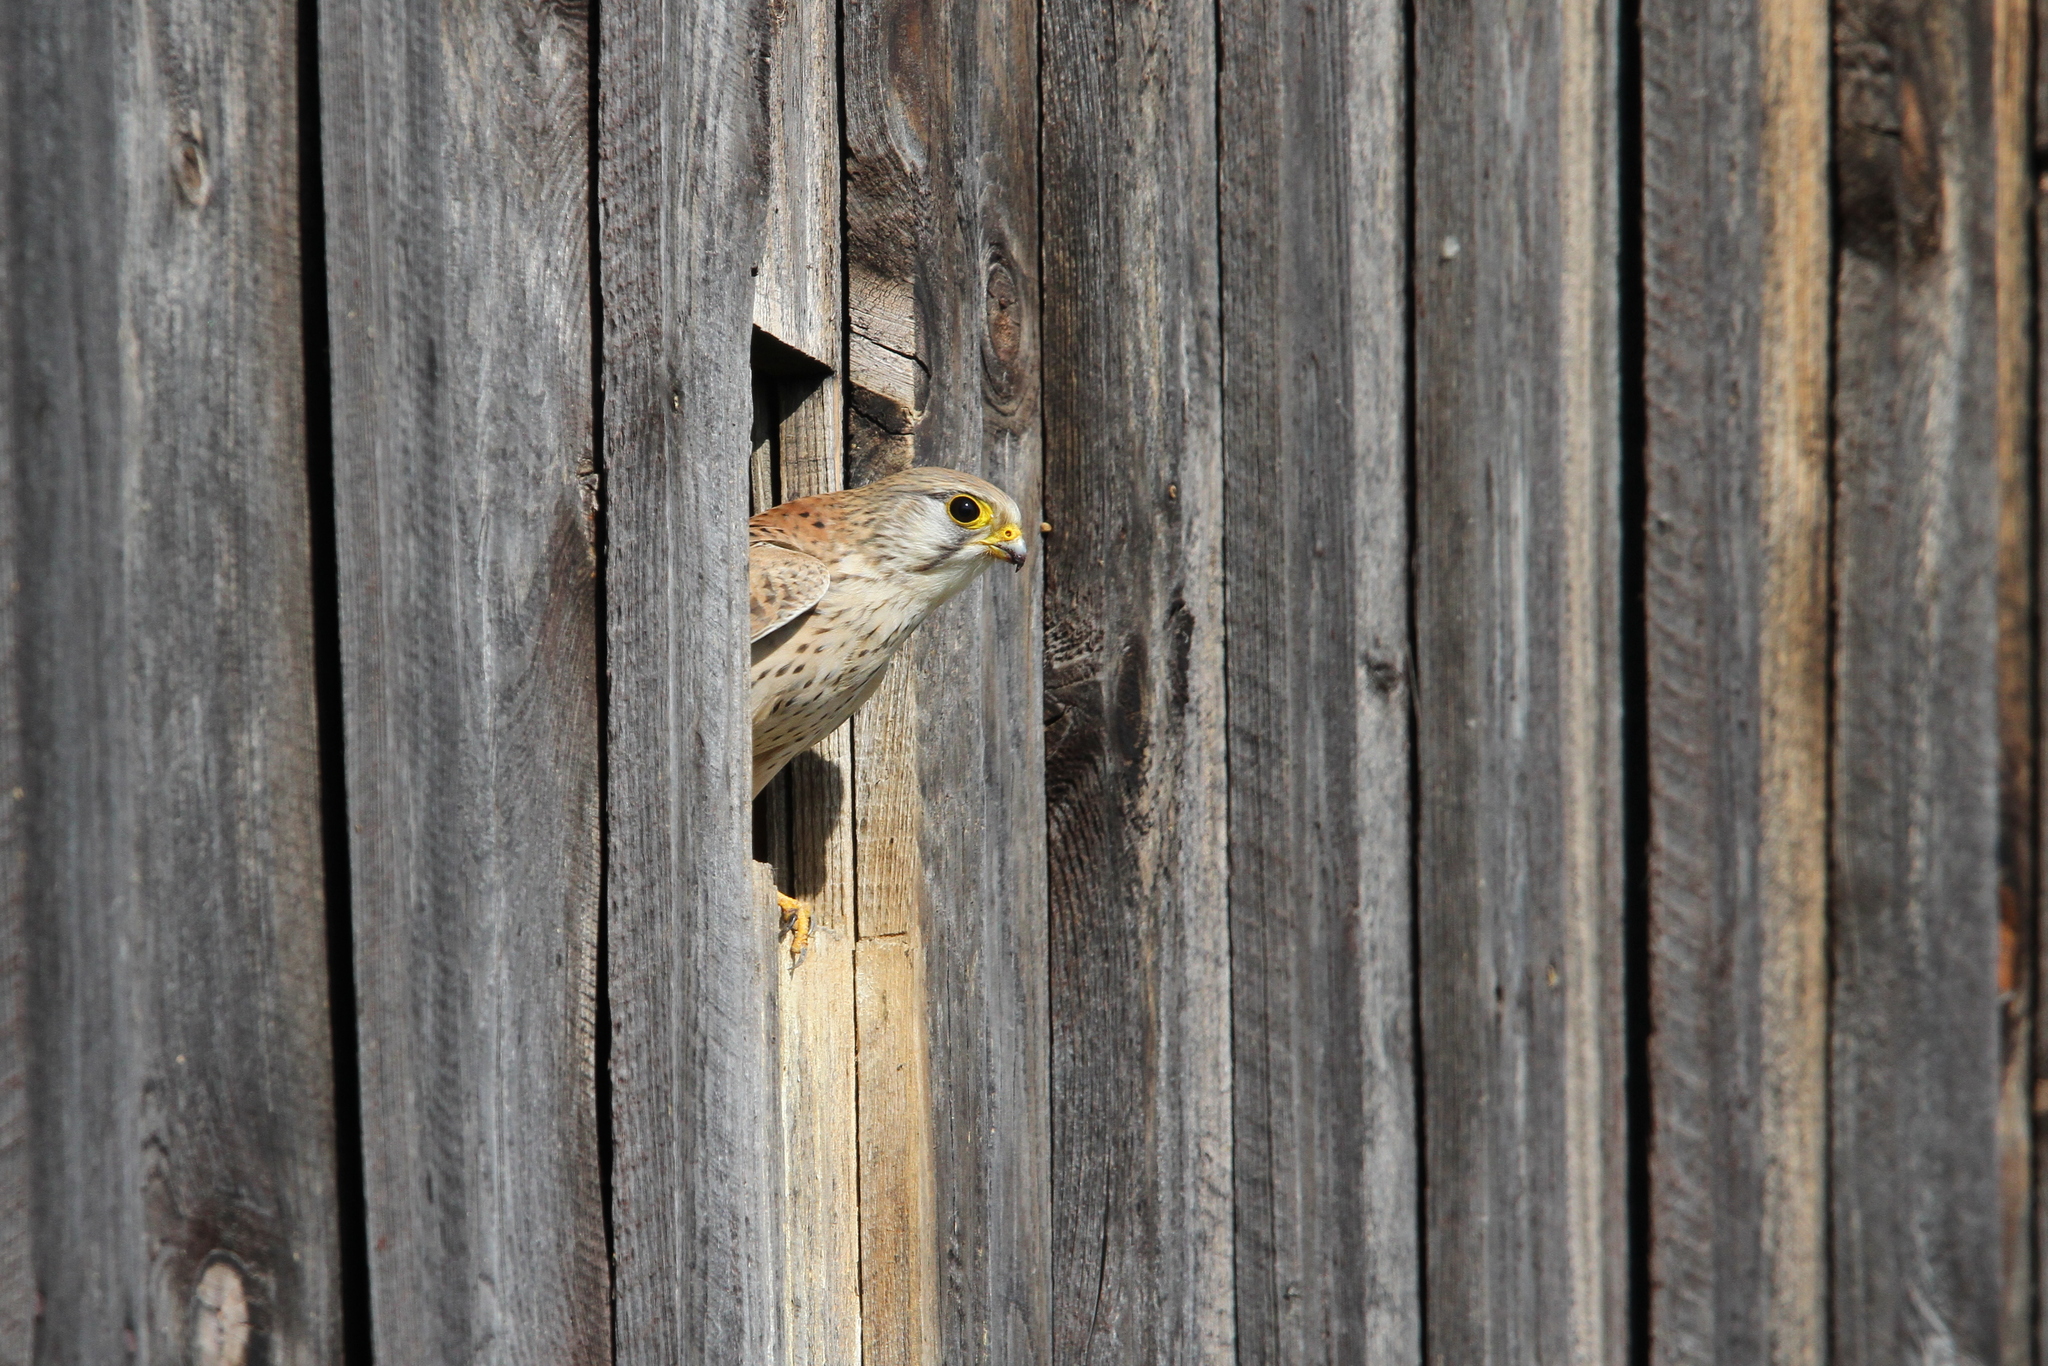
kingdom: Animalia
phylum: Chordata
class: Aves
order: Falconiformes
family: Falconidae
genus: Falco
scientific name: Falco tinnunculus
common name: Common kestrel
